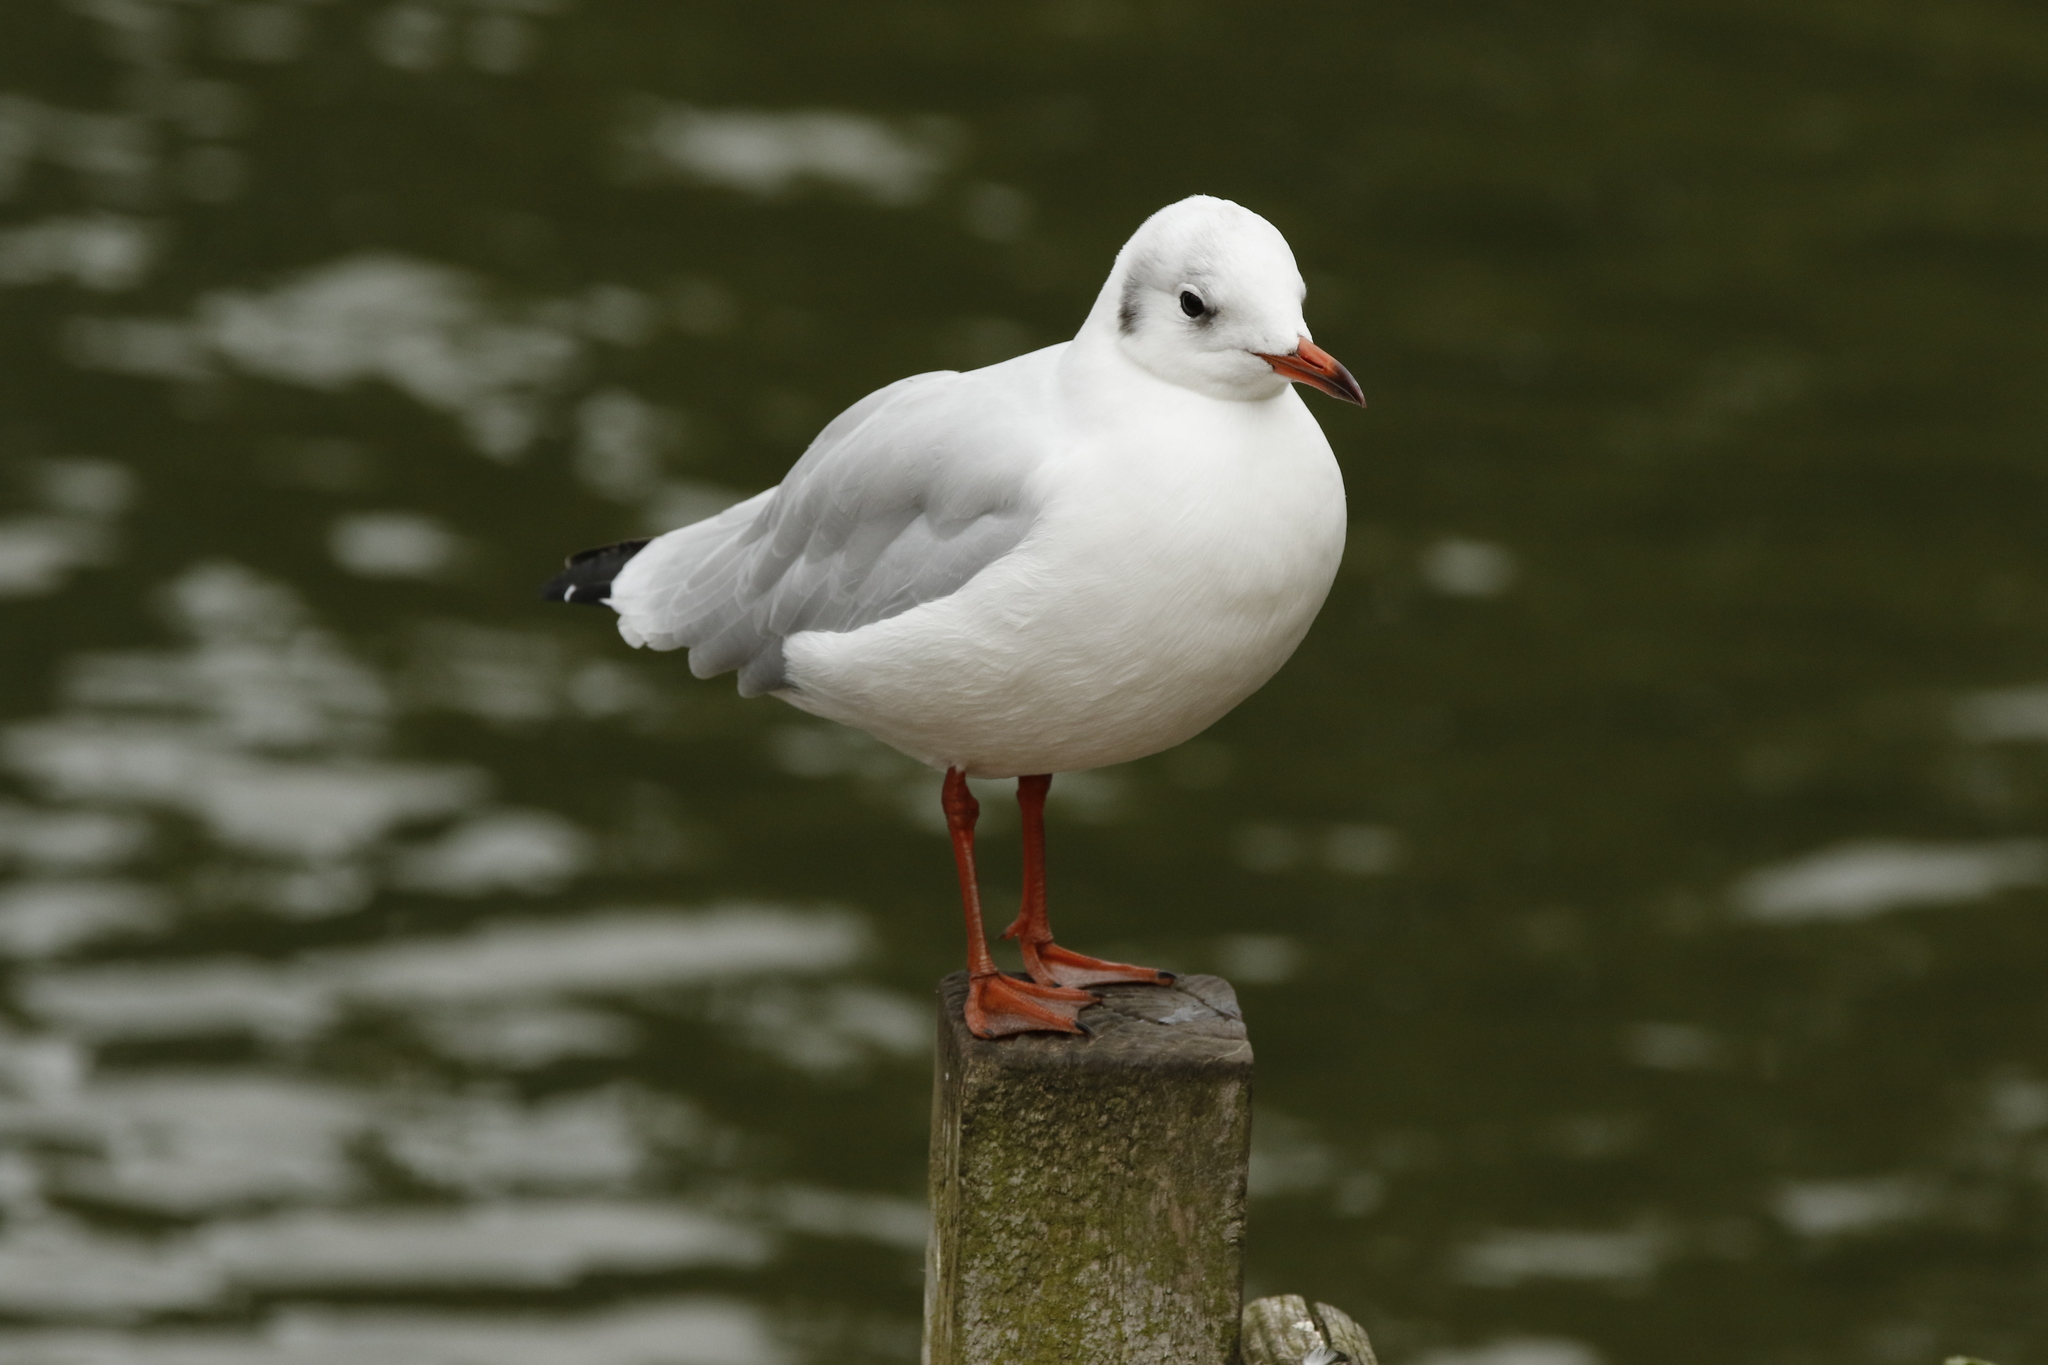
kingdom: Animalia
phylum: Chordata
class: Aves
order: Charadriiformes
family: Laridae
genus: Chroicocephalus
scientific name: Chroicocephalus ridibundus
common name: Black-headed gull
